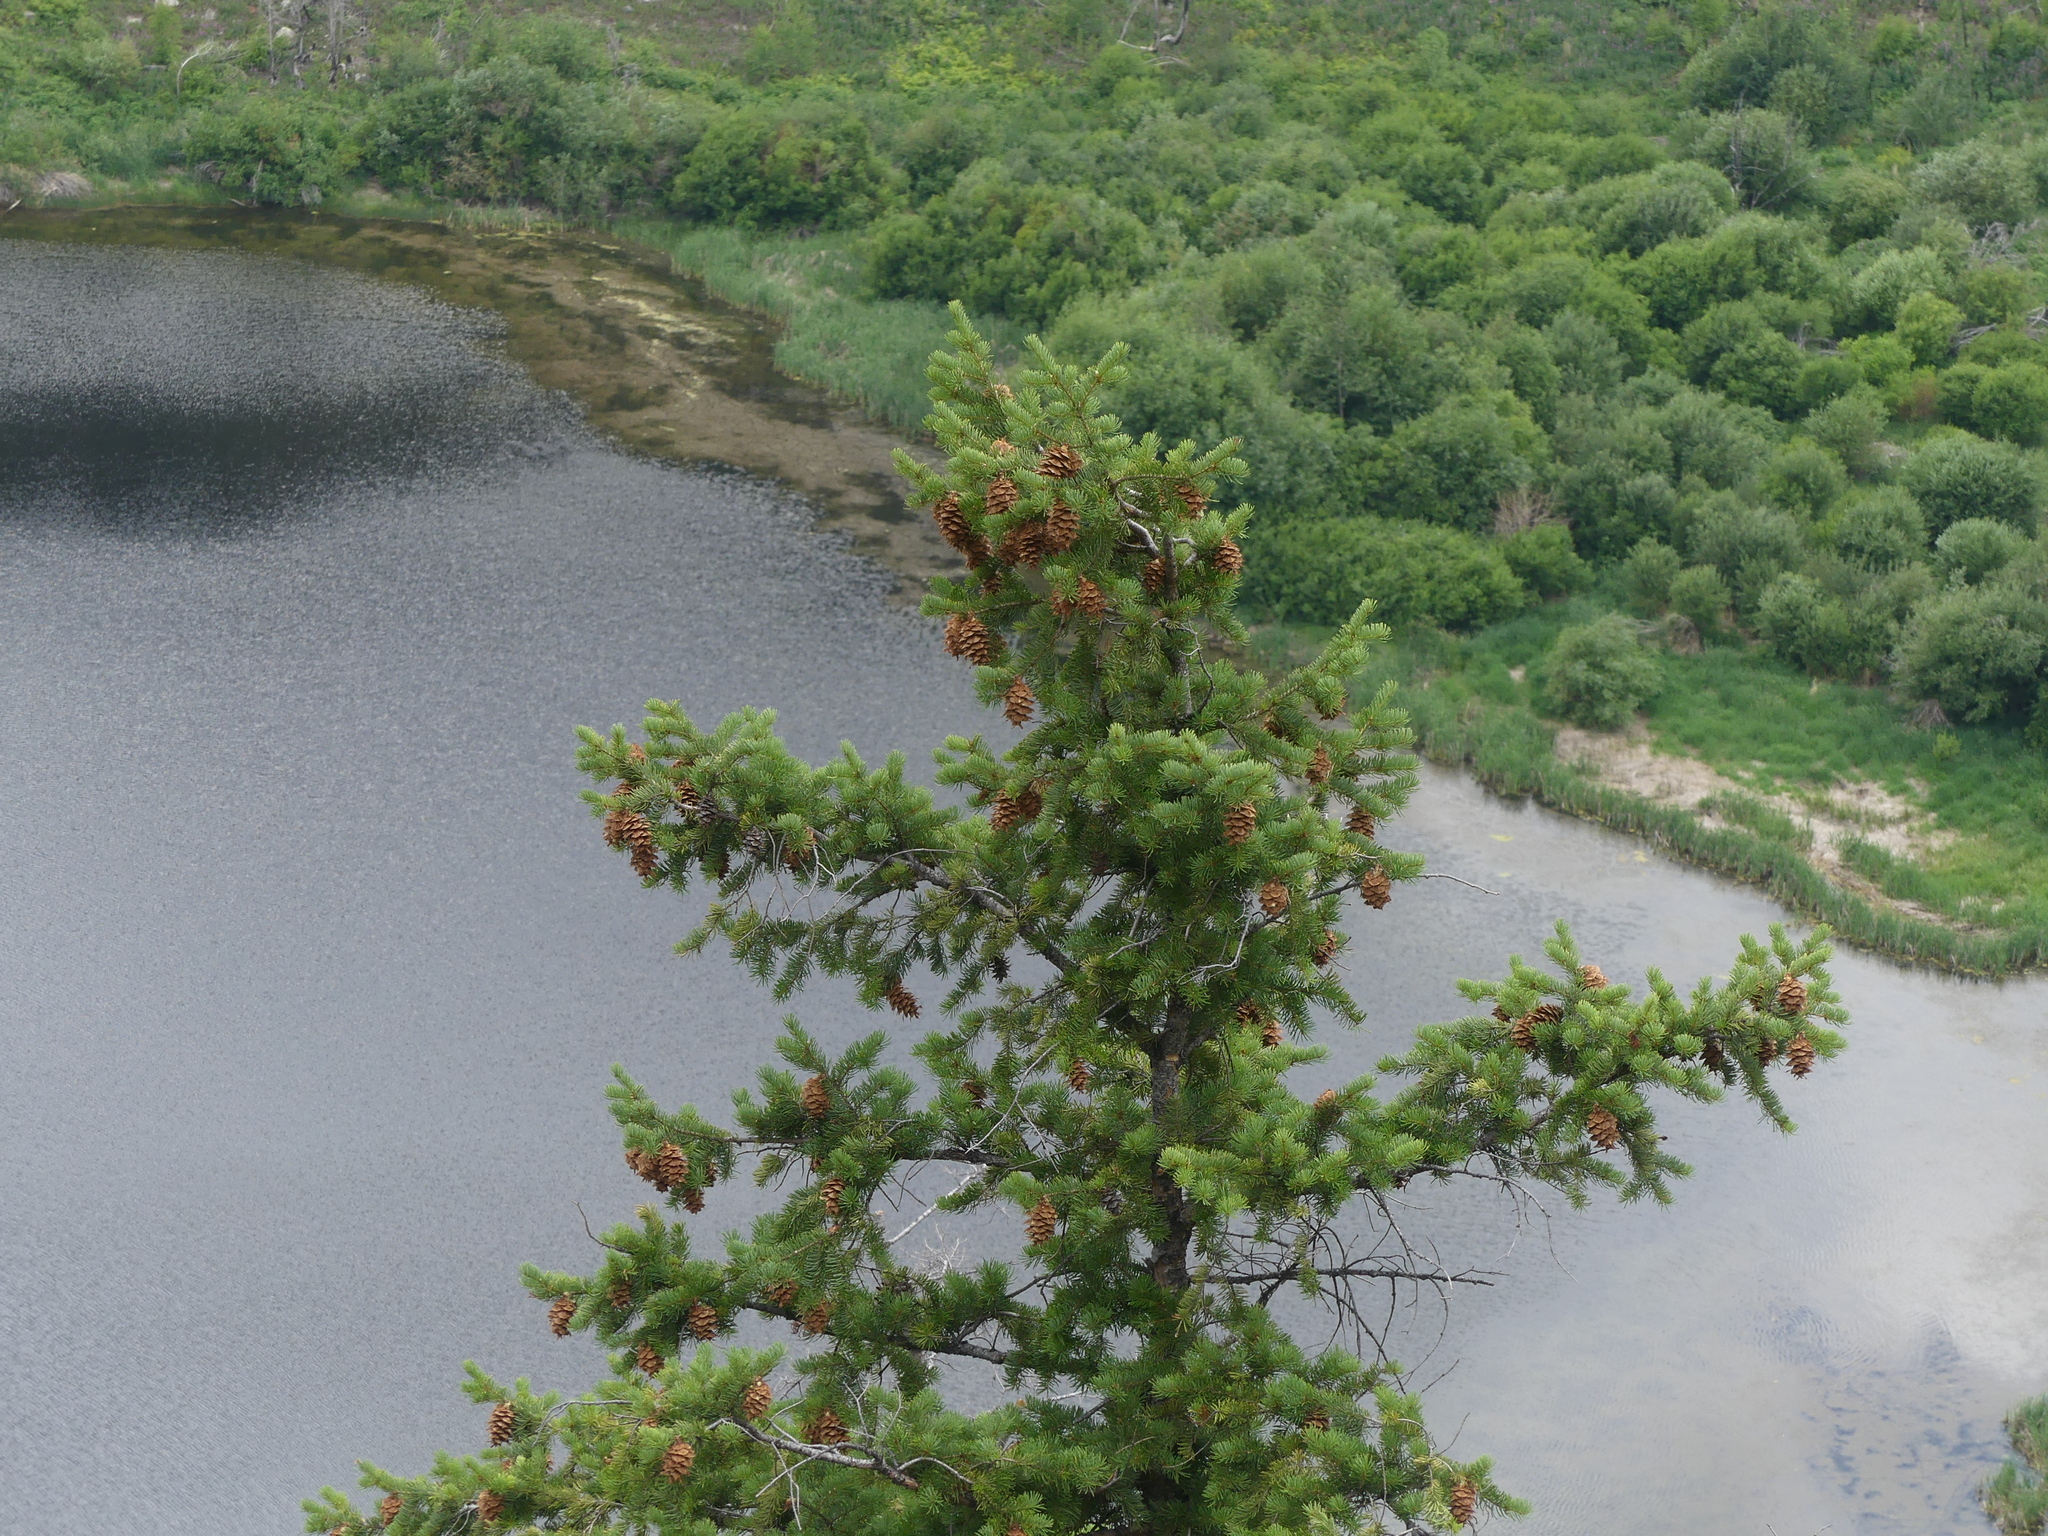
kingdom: Plantae
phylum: Tracheophyta
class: Pinopsida
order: Pinales
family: Pinaceae
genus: Pseudotsuga
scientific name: Pseudotsuga menziesii
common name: Douglas fir
